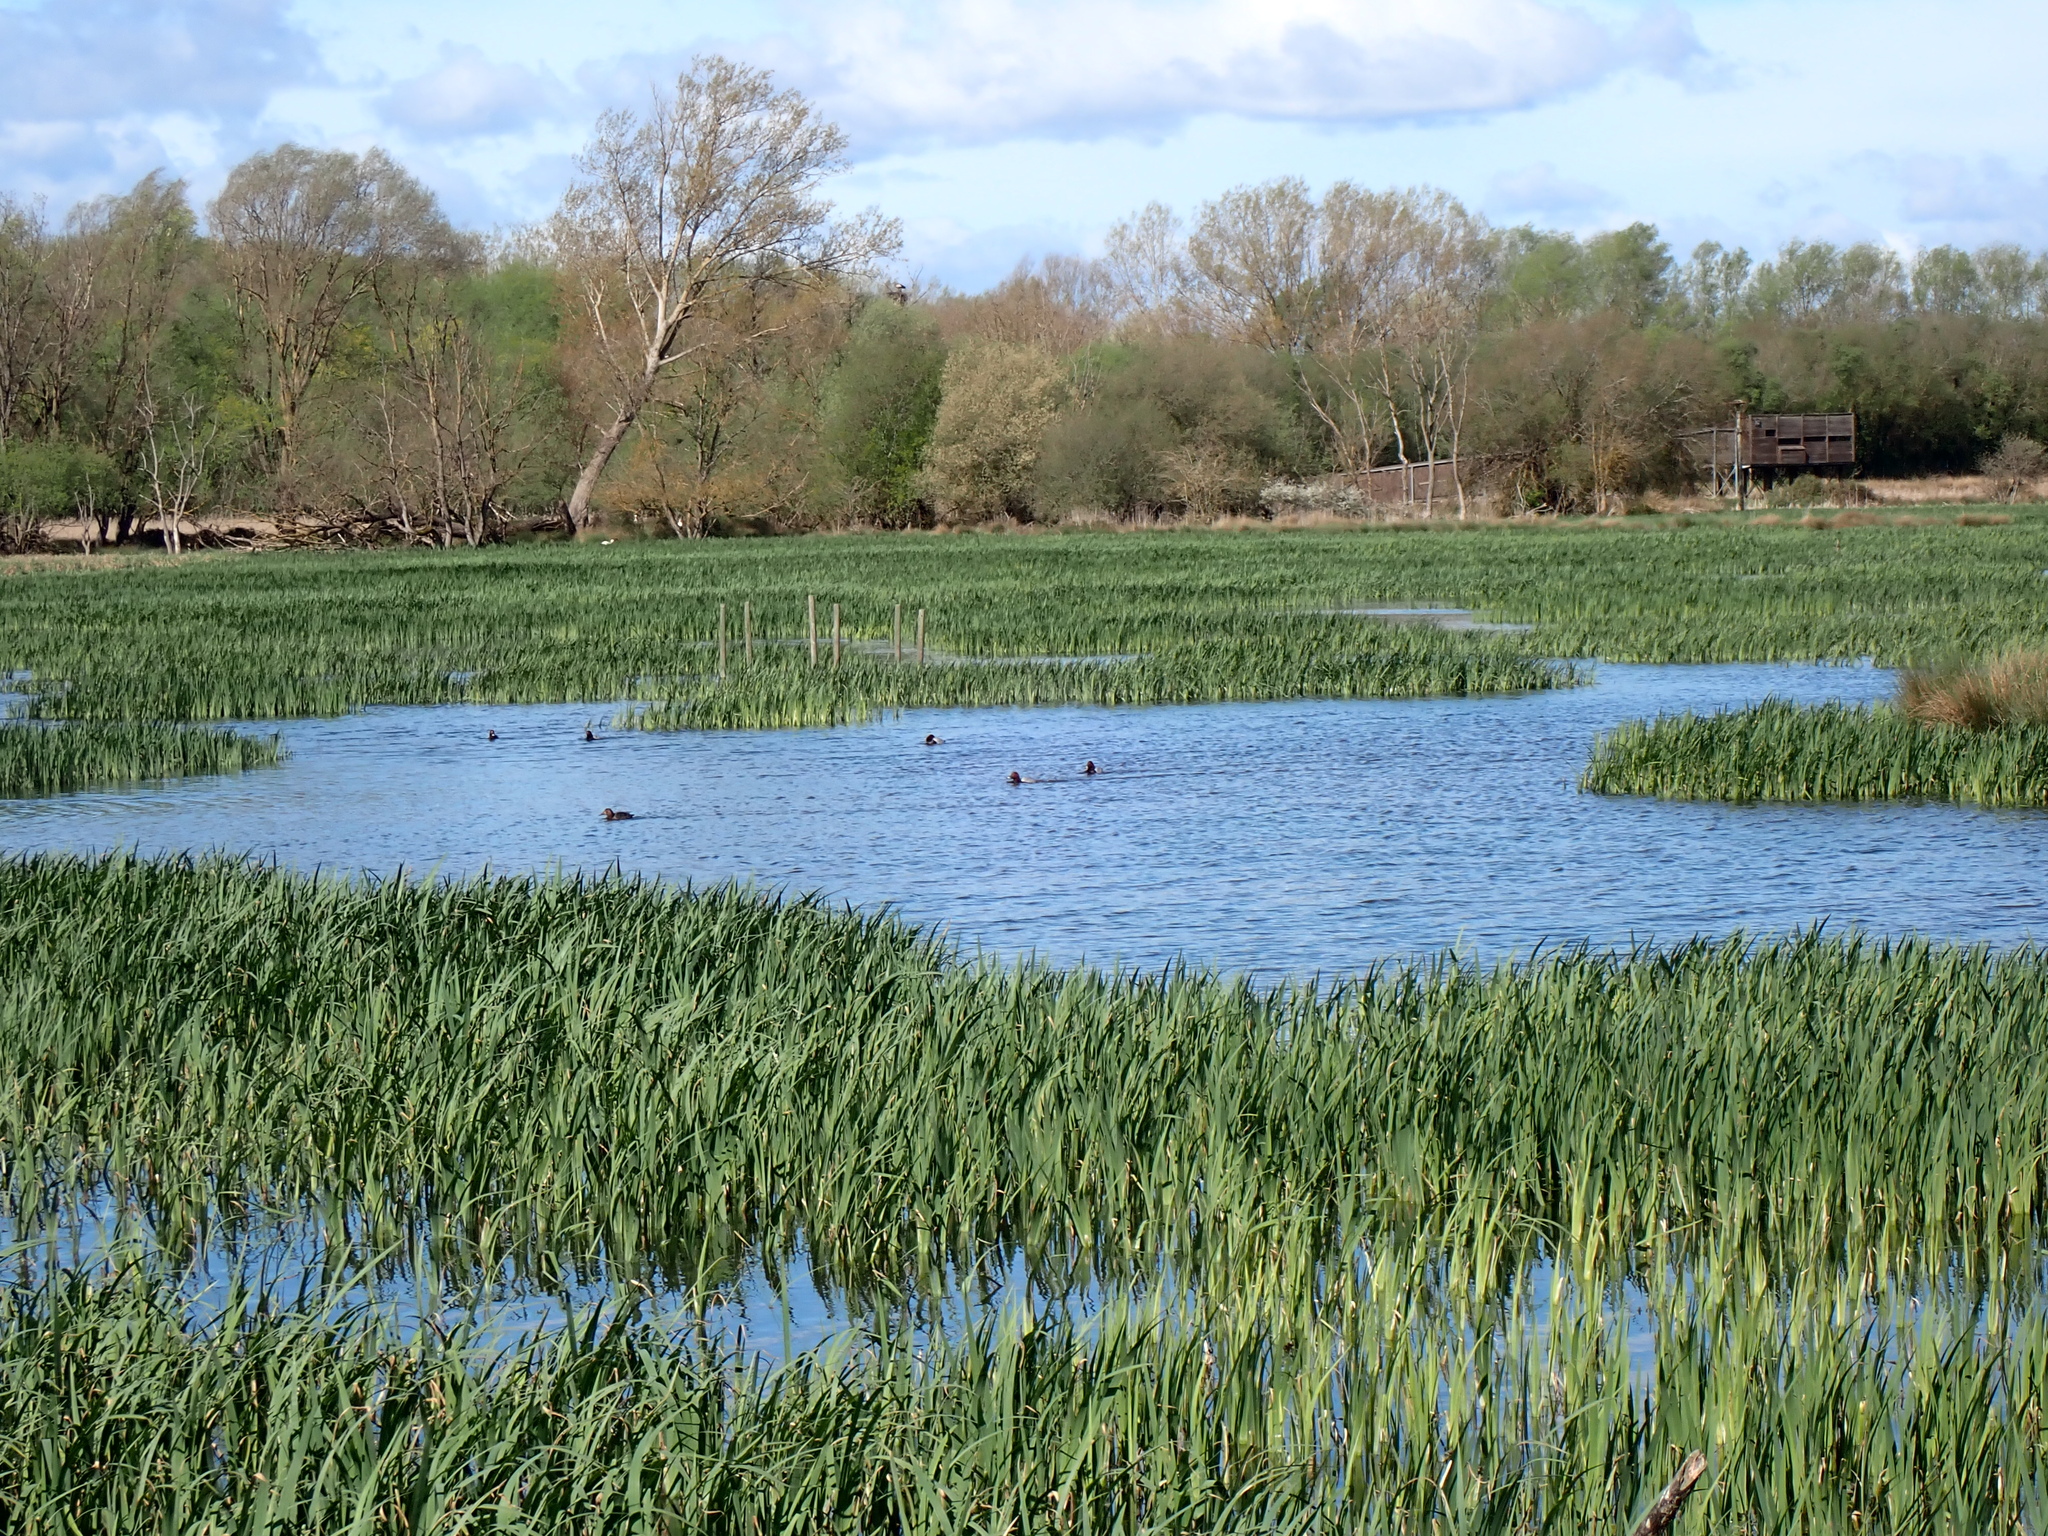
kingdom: Animalia
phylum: Chordata
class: Aves
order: Anseriformes
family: Anatidae
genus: Aythya
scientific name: Aythya ferina
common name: Common pochard
